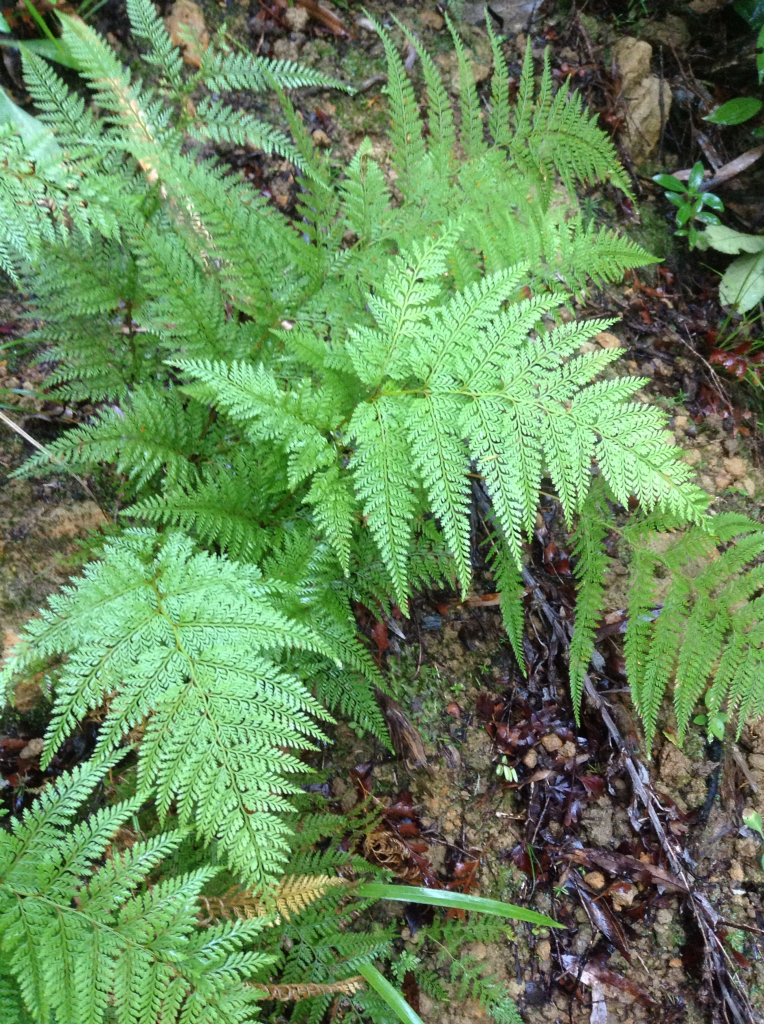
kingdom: Plantae
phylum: Tracheophyta
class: Polypodiopsida
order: Polypodiales
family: Dennstaedtiaceae
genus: Paesia
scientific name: Paesia scaberula
